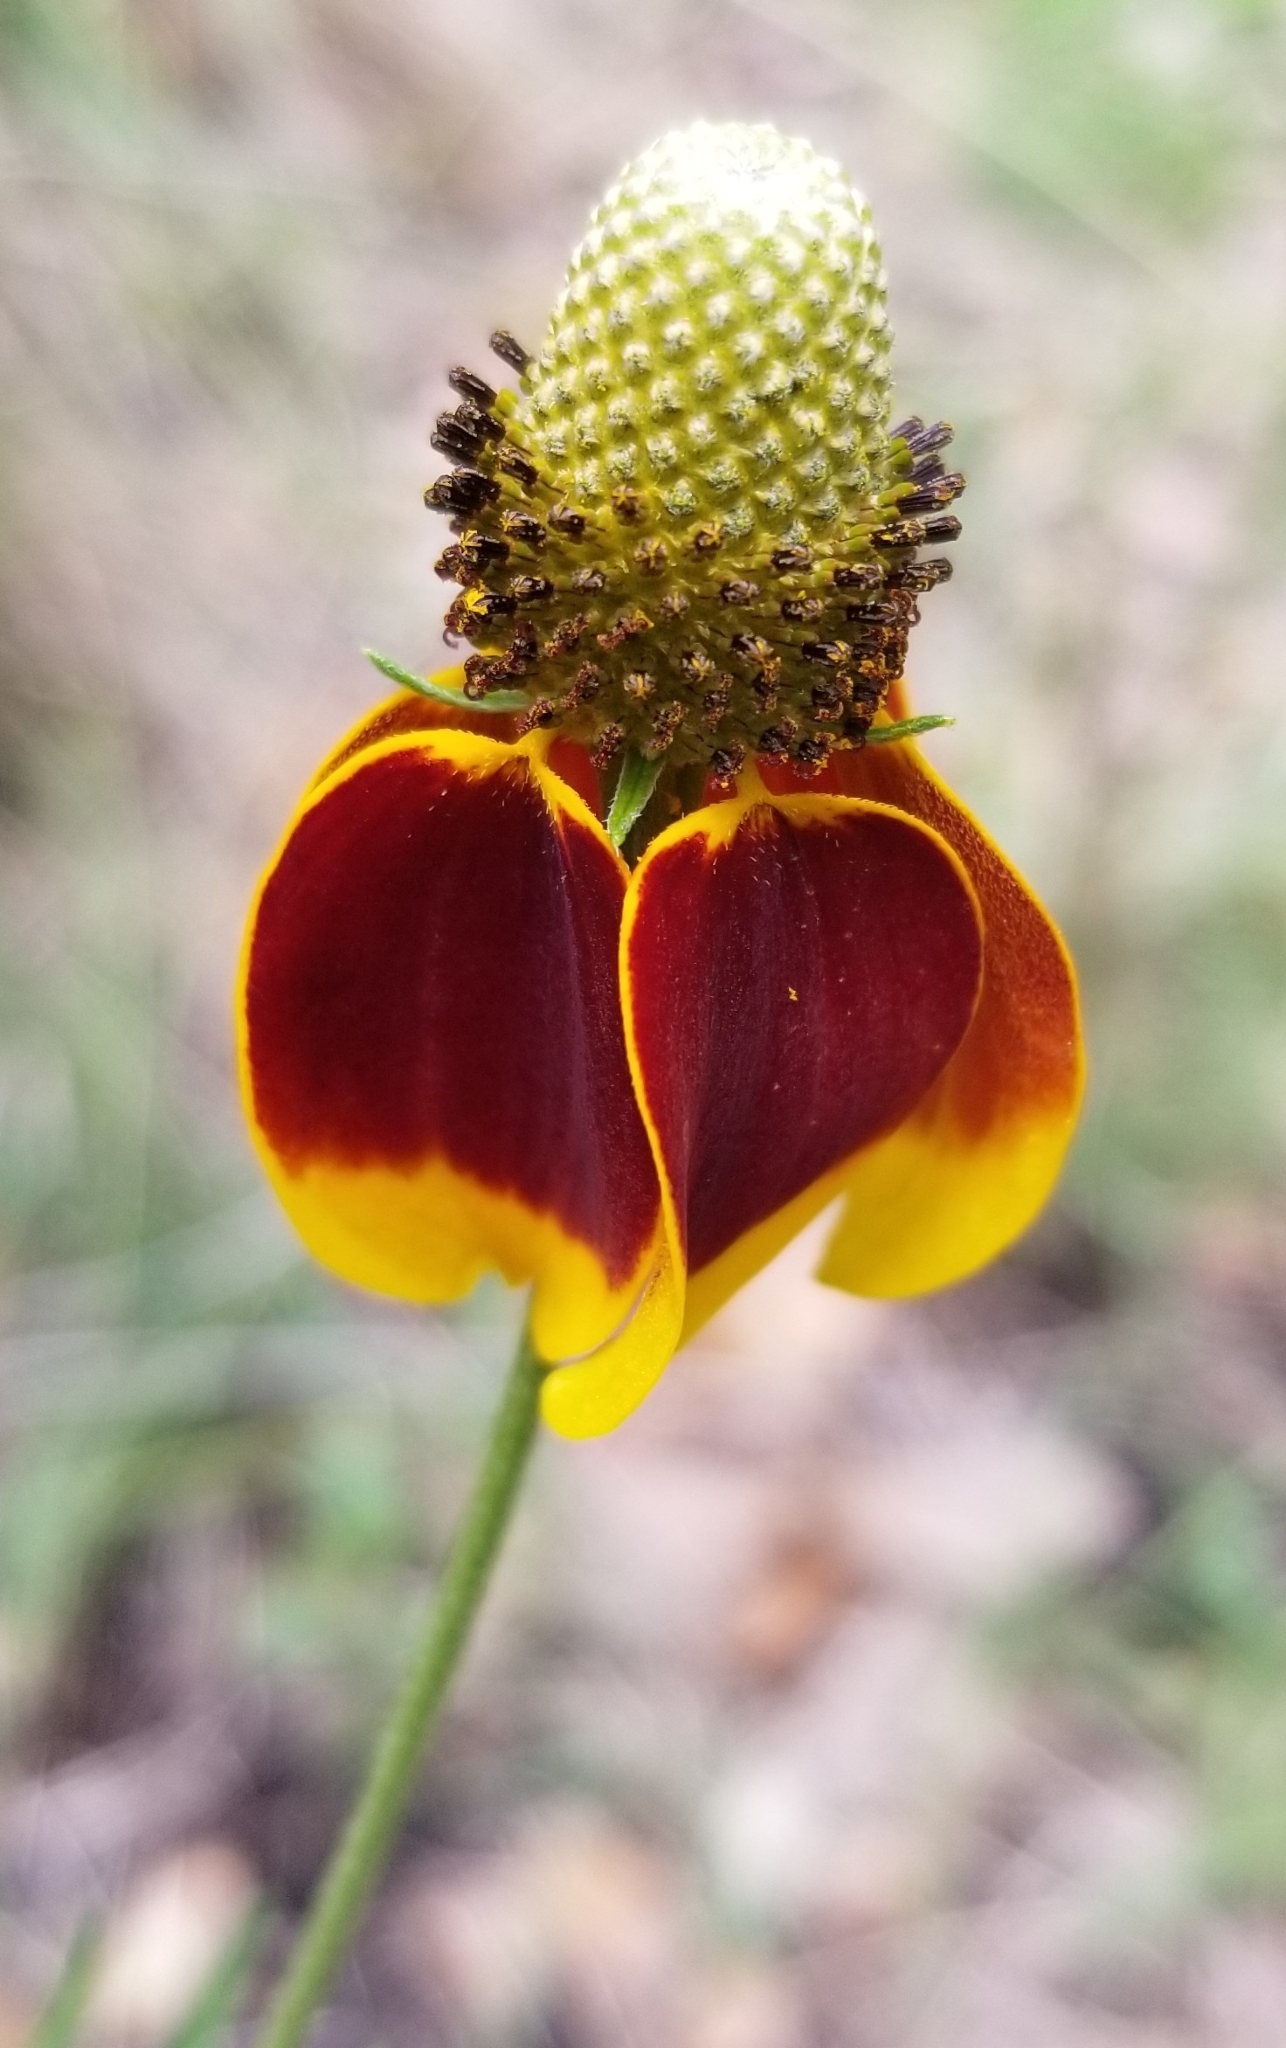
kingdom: Plantae
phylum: Tracheophyta
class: Magnoliopsida
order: Asterales
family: Asteraceae
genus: Ratibida
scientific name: Ratibida columnifera
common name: Prairie coneflower
